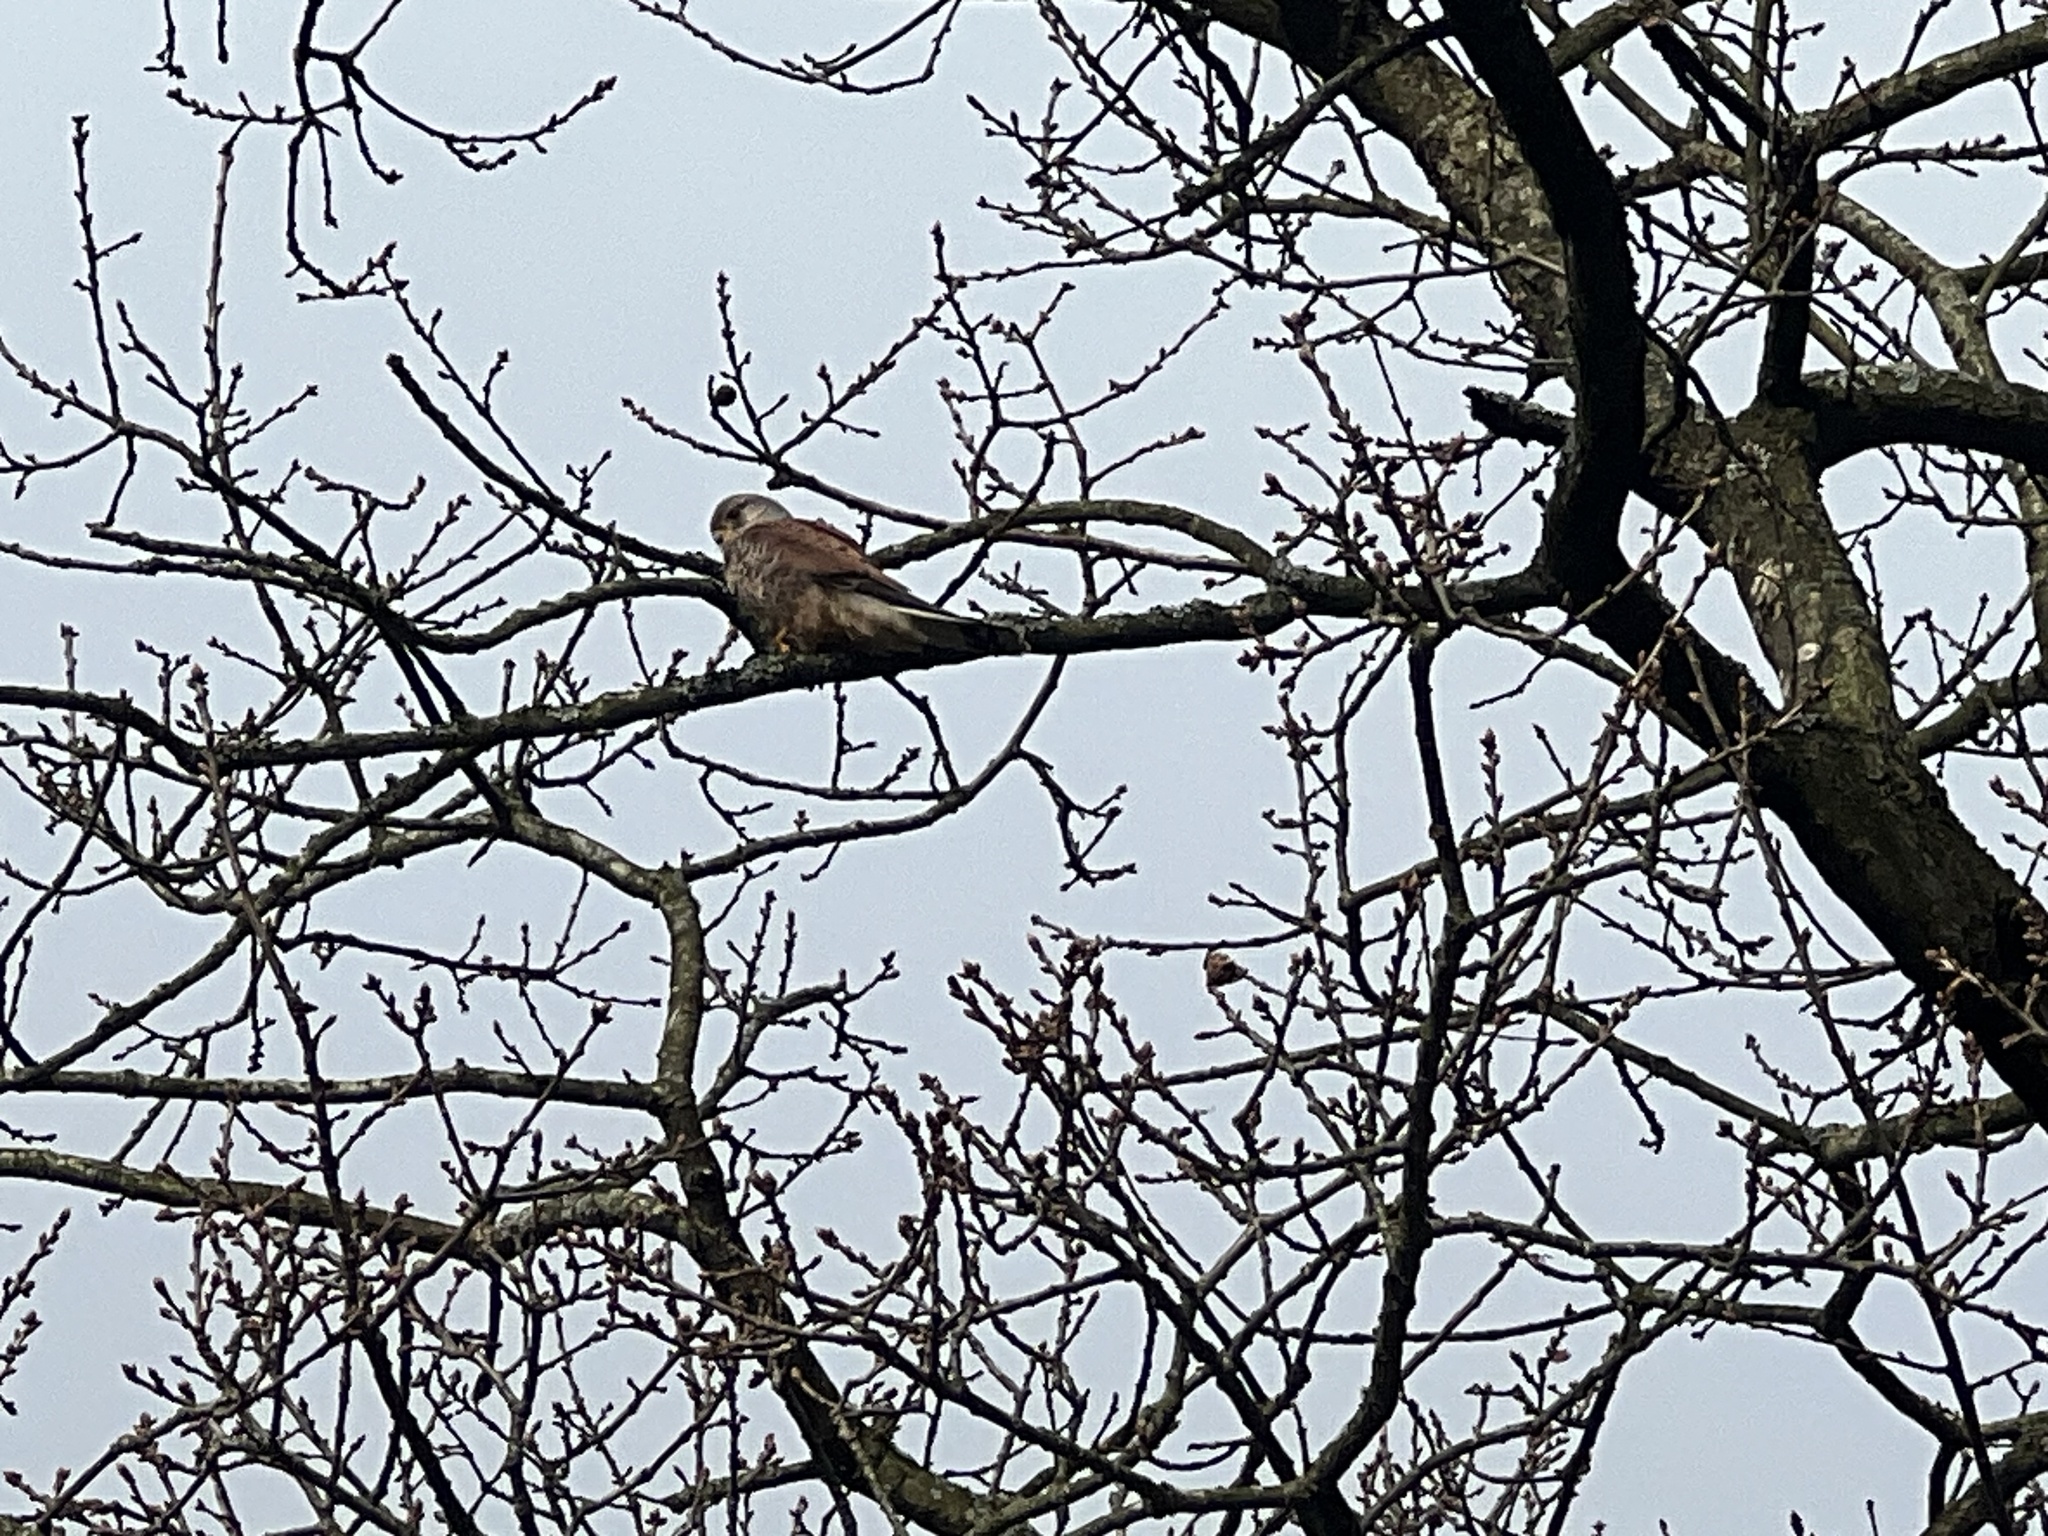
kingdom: Animalia
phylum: Chordata
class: Aves
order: Falconiformes
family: Falconidae
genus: Falco
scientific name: Falco tinnunculus
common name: Common kestrel
